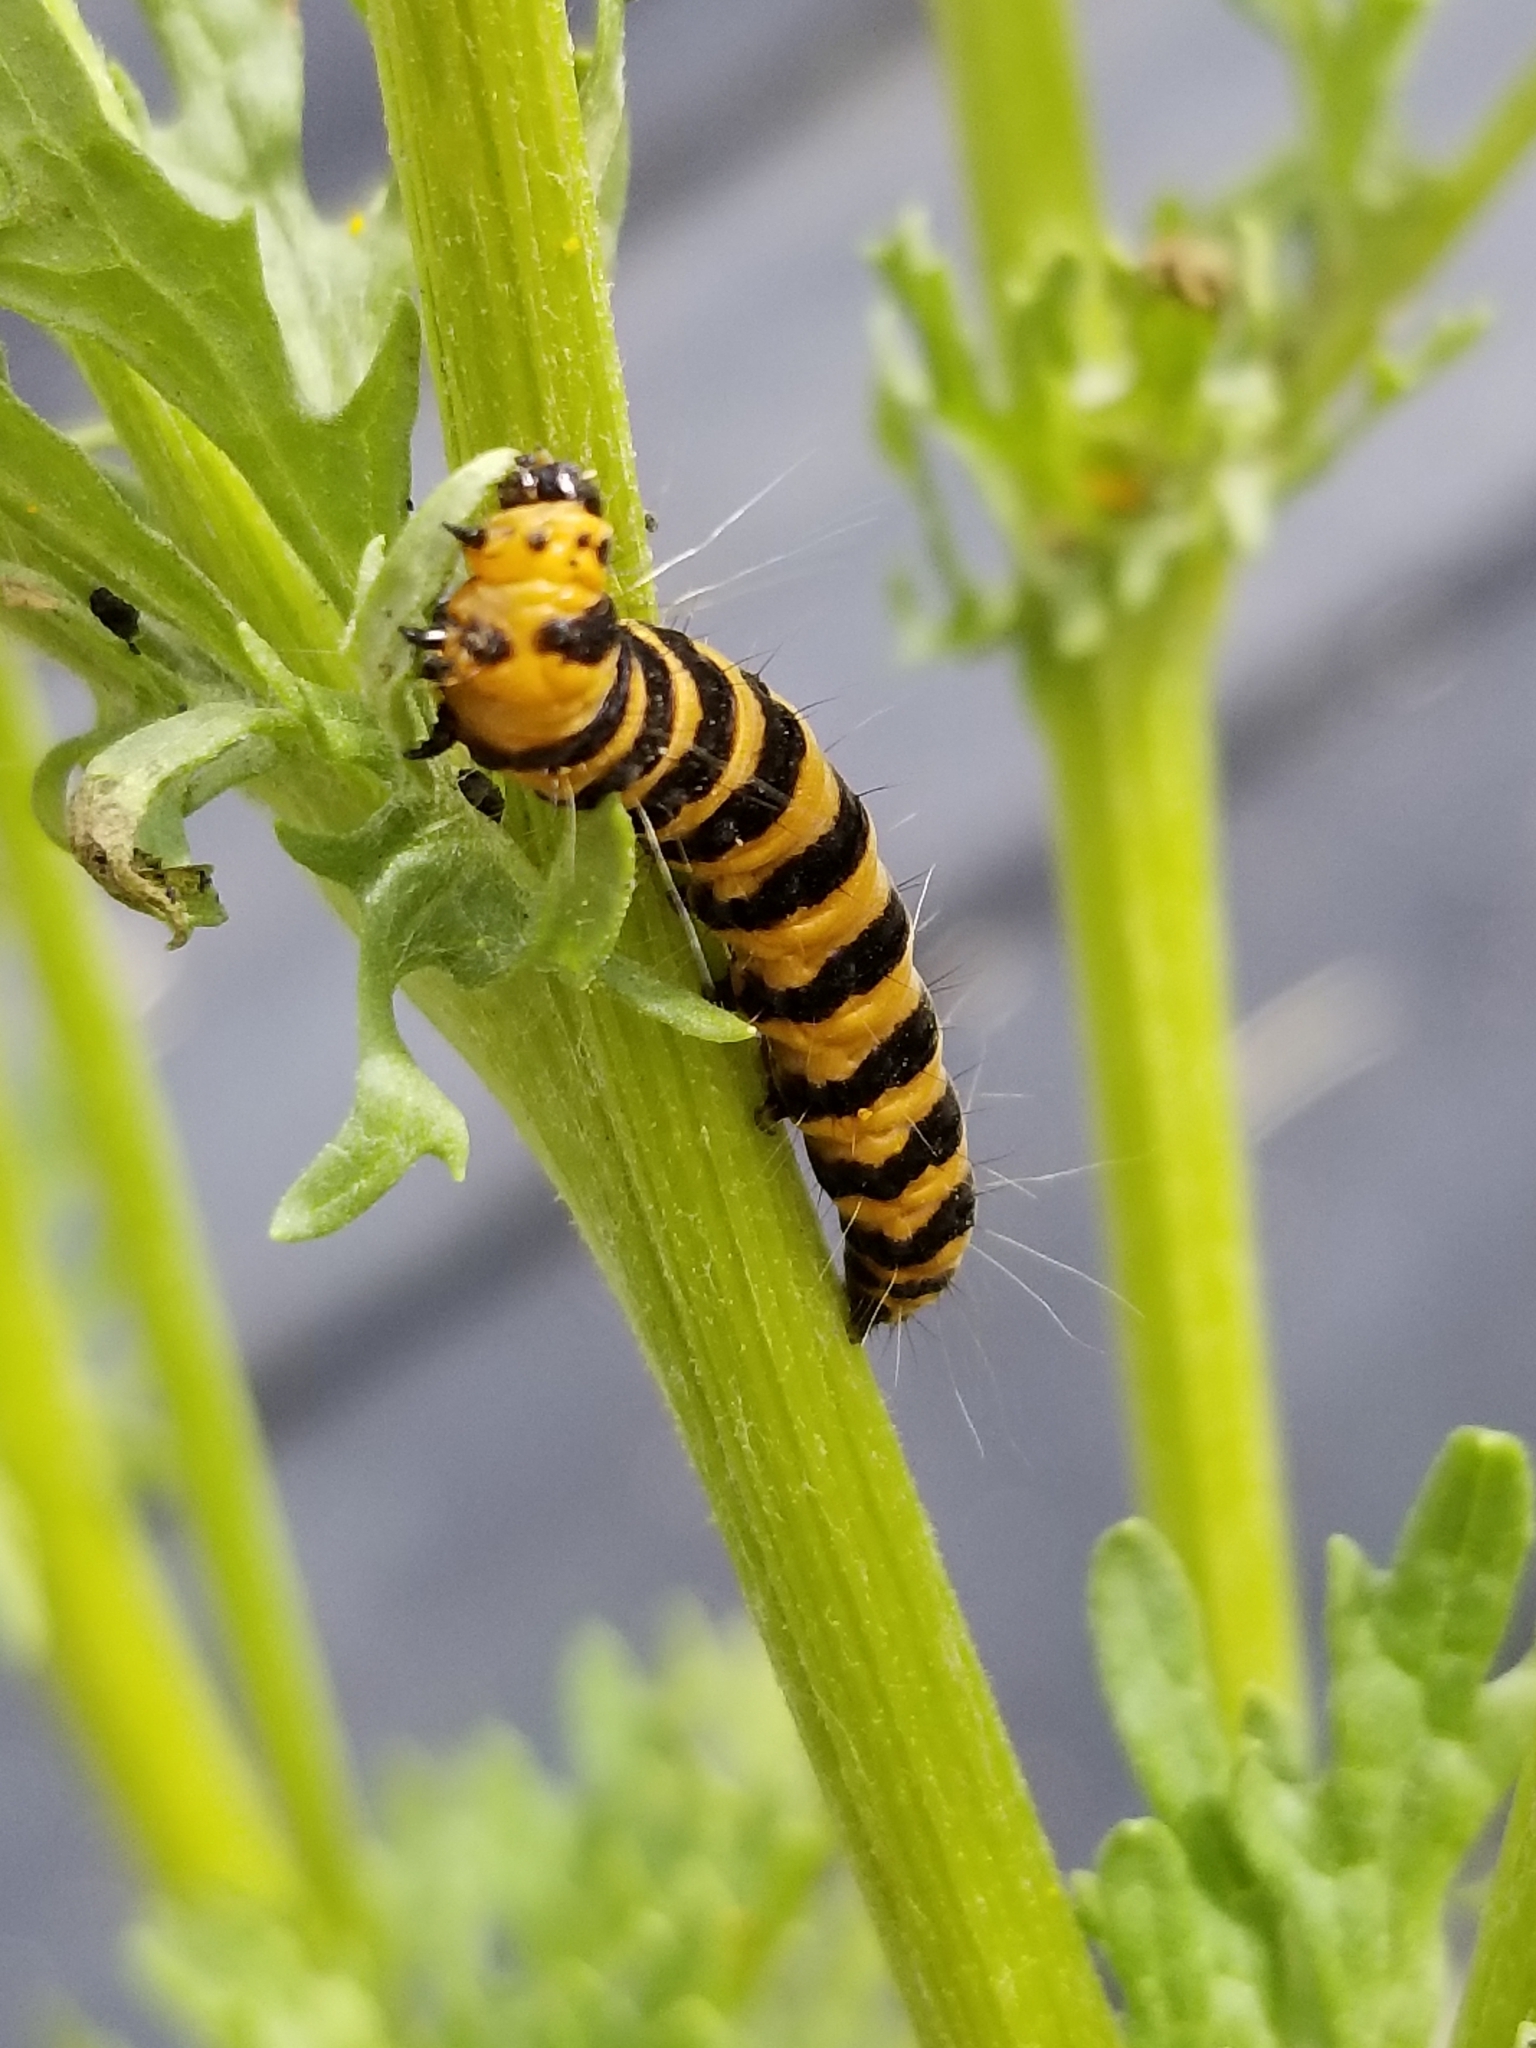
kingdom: Animalia
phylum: Arthropoda
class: Insecta
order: Lepidoptera
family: Erebidae
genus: Tyria
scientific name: Tyria jacobaeae
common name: Cinnabar
